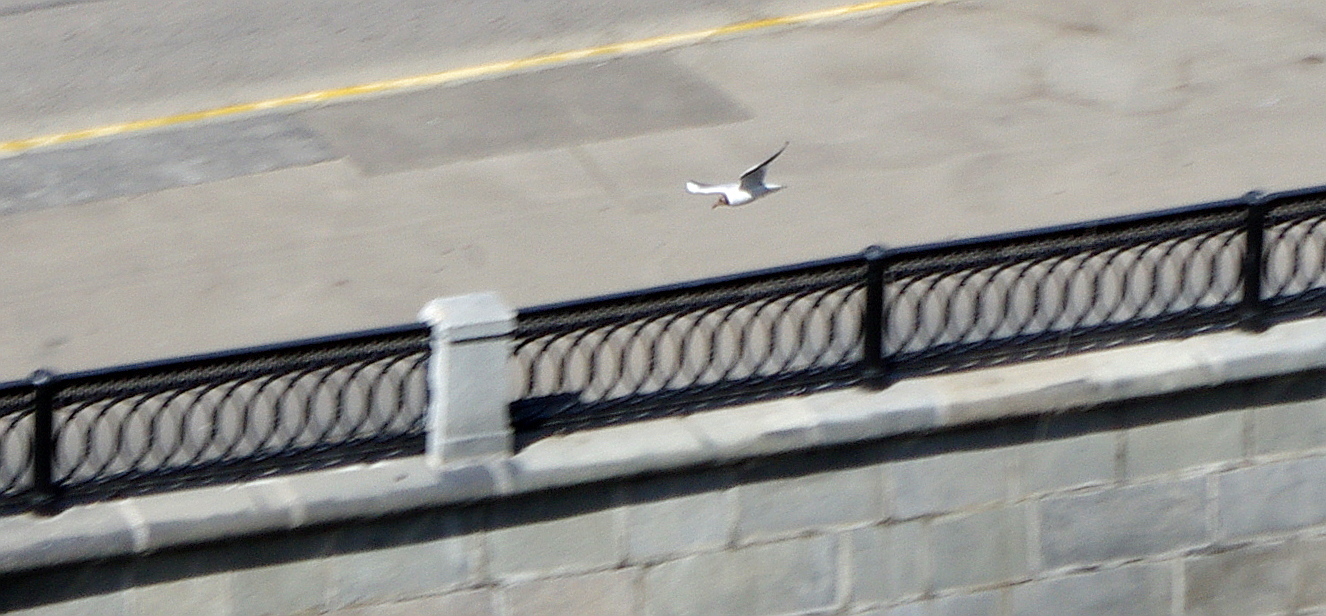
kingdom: Animalia
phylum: Chordata
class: Aves
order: Charadriiformes
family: Laridae
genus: Chroicocephalus
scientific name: Chroicocephalus ridibundus
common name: Black-headed gull
